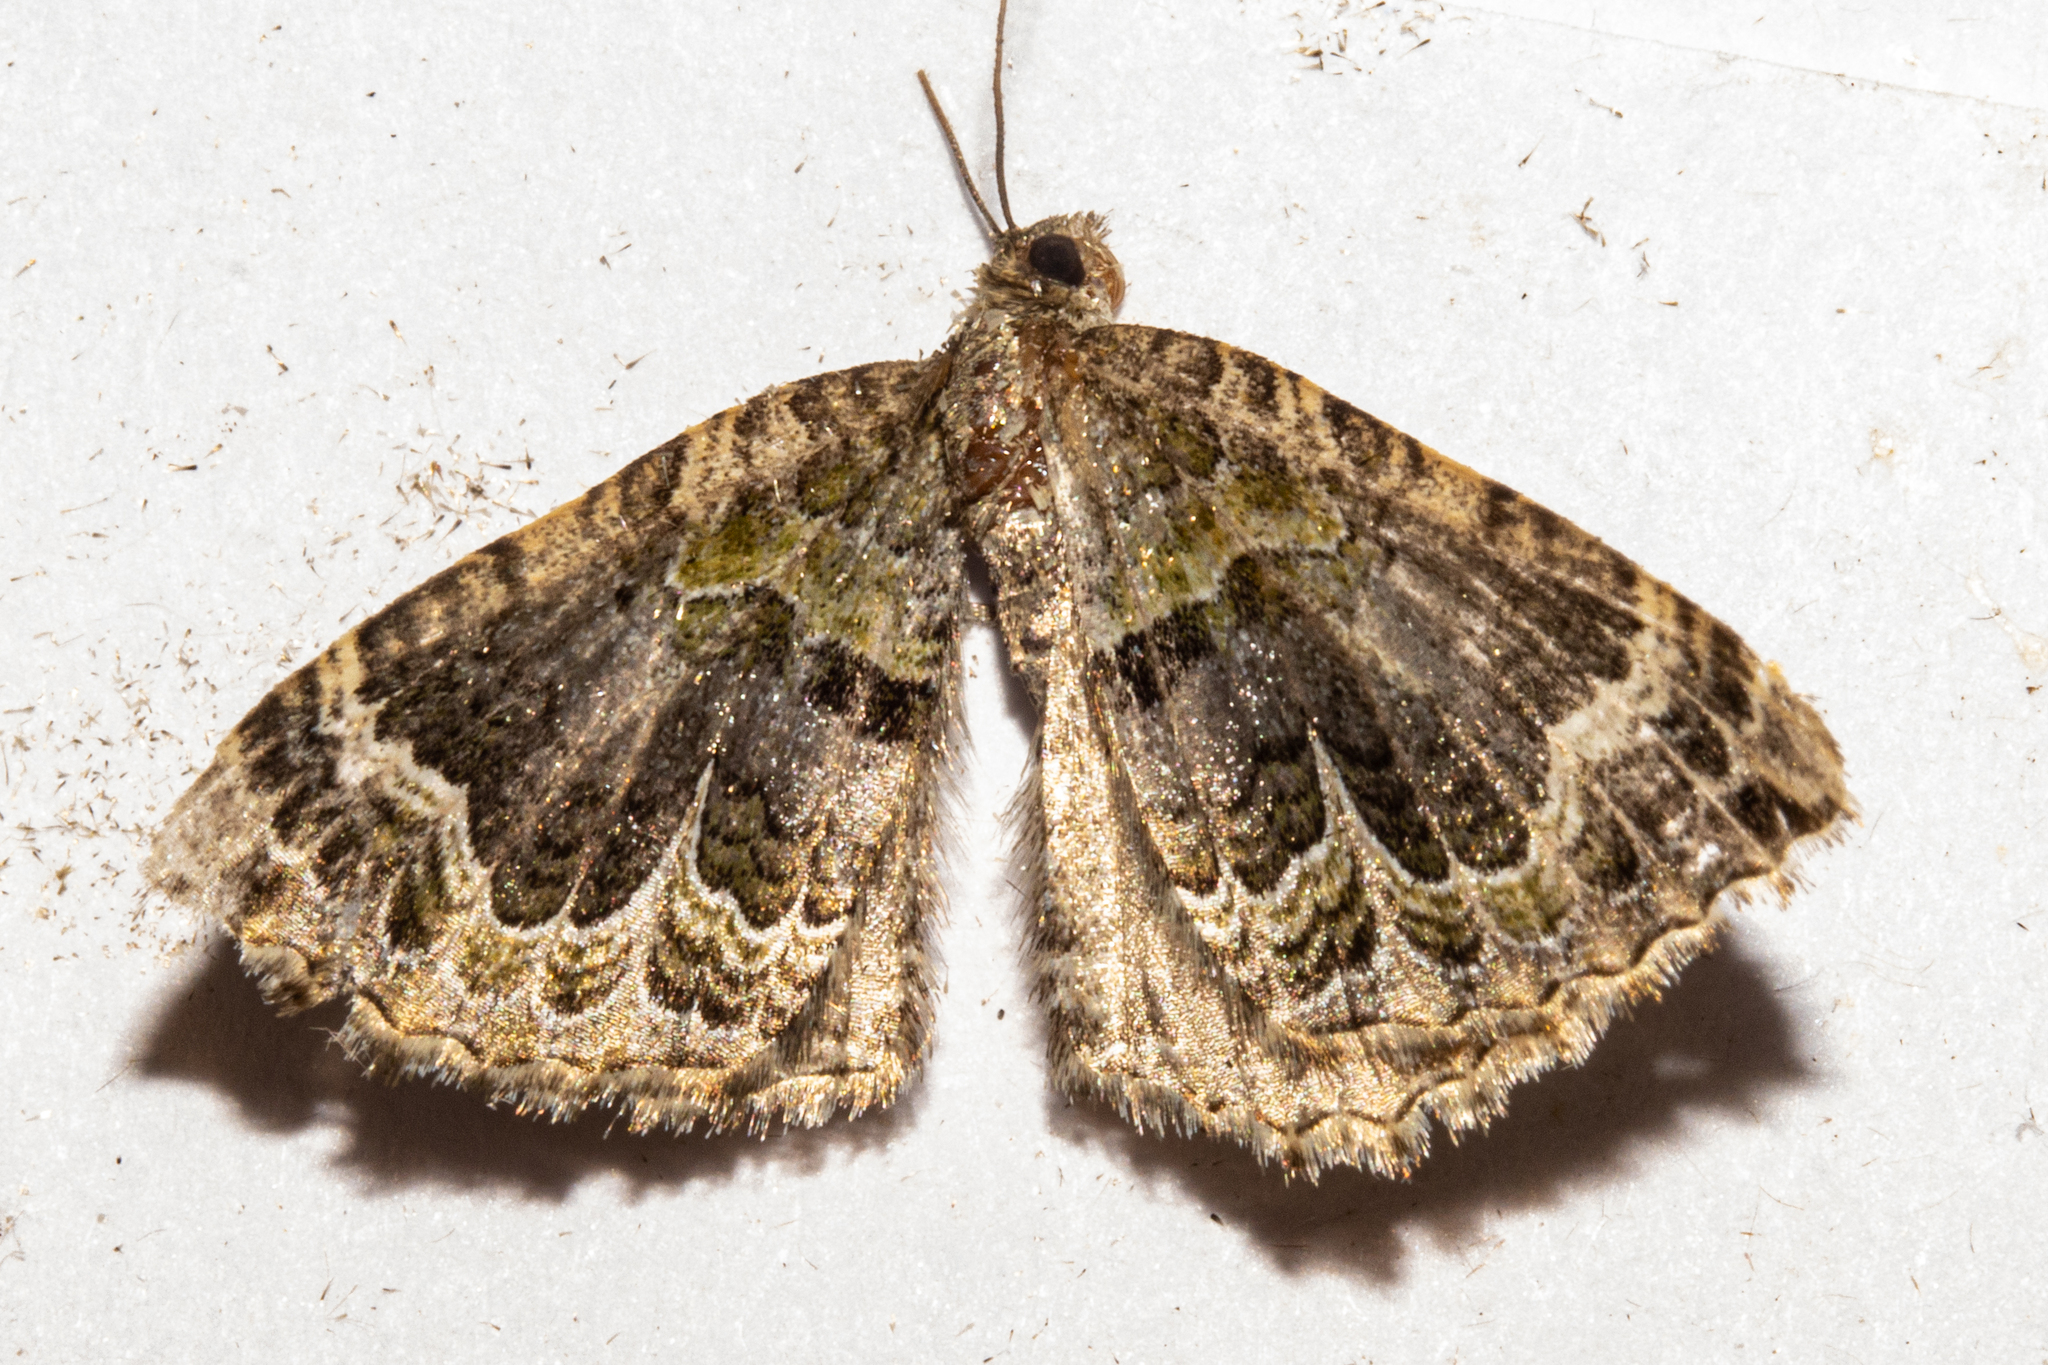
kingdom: Animalia
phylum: Arthropoda
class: Insecta
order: Lepidoptera
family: Geometridae
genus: Hydriomena
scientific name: Hydriomena rixata
